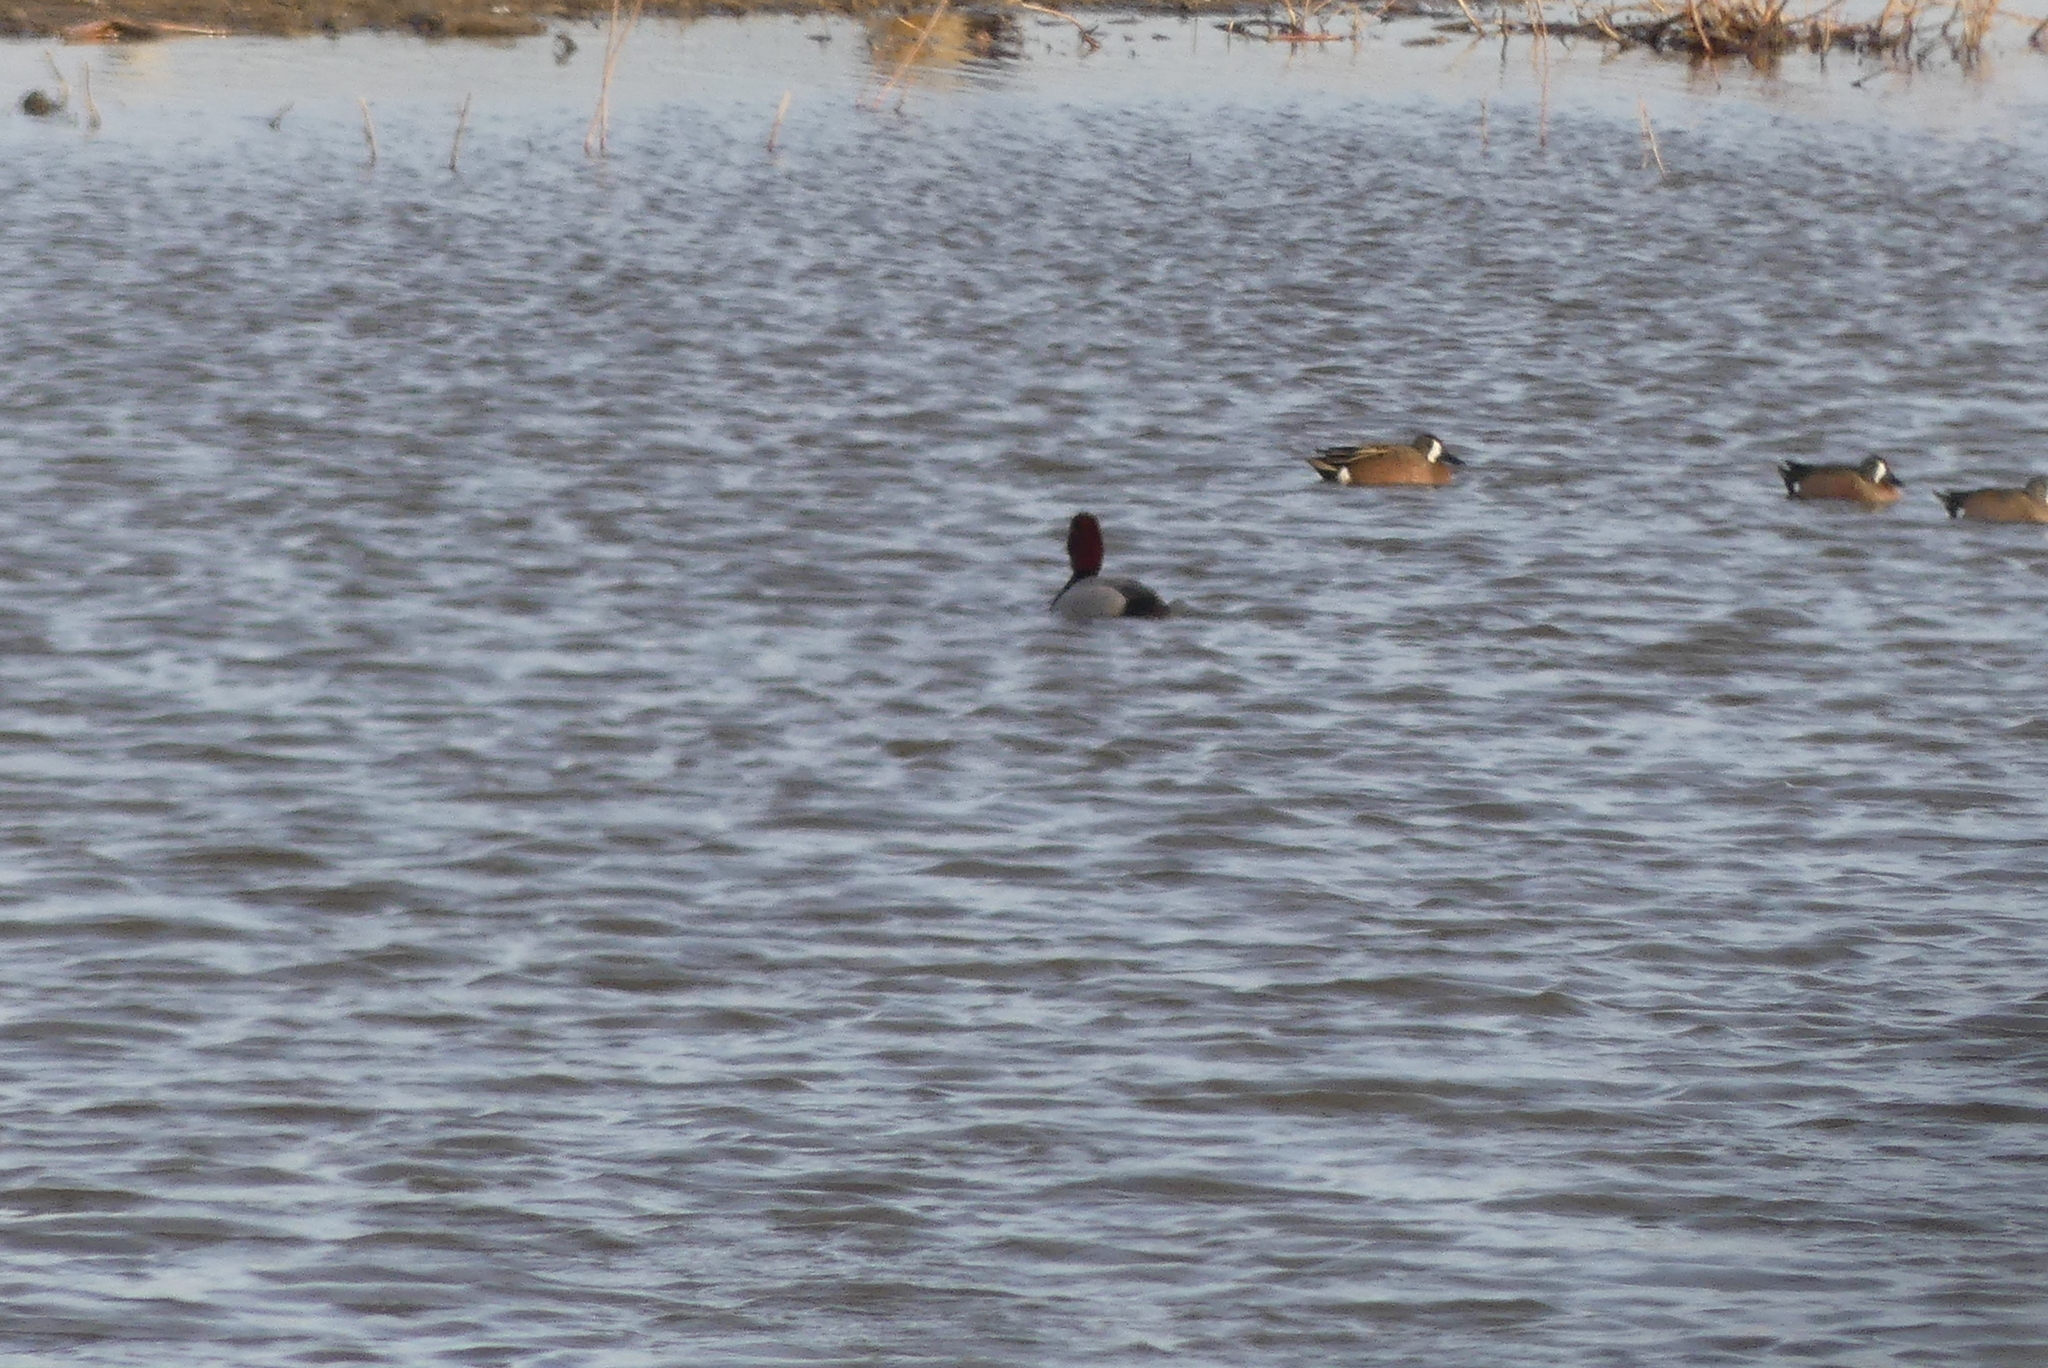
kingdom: Animalia
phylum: Chordata
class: Aves
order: Anseriformes
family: Anatidae
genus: Spatula
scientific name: Spatula discors
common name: Blue-winged teal
